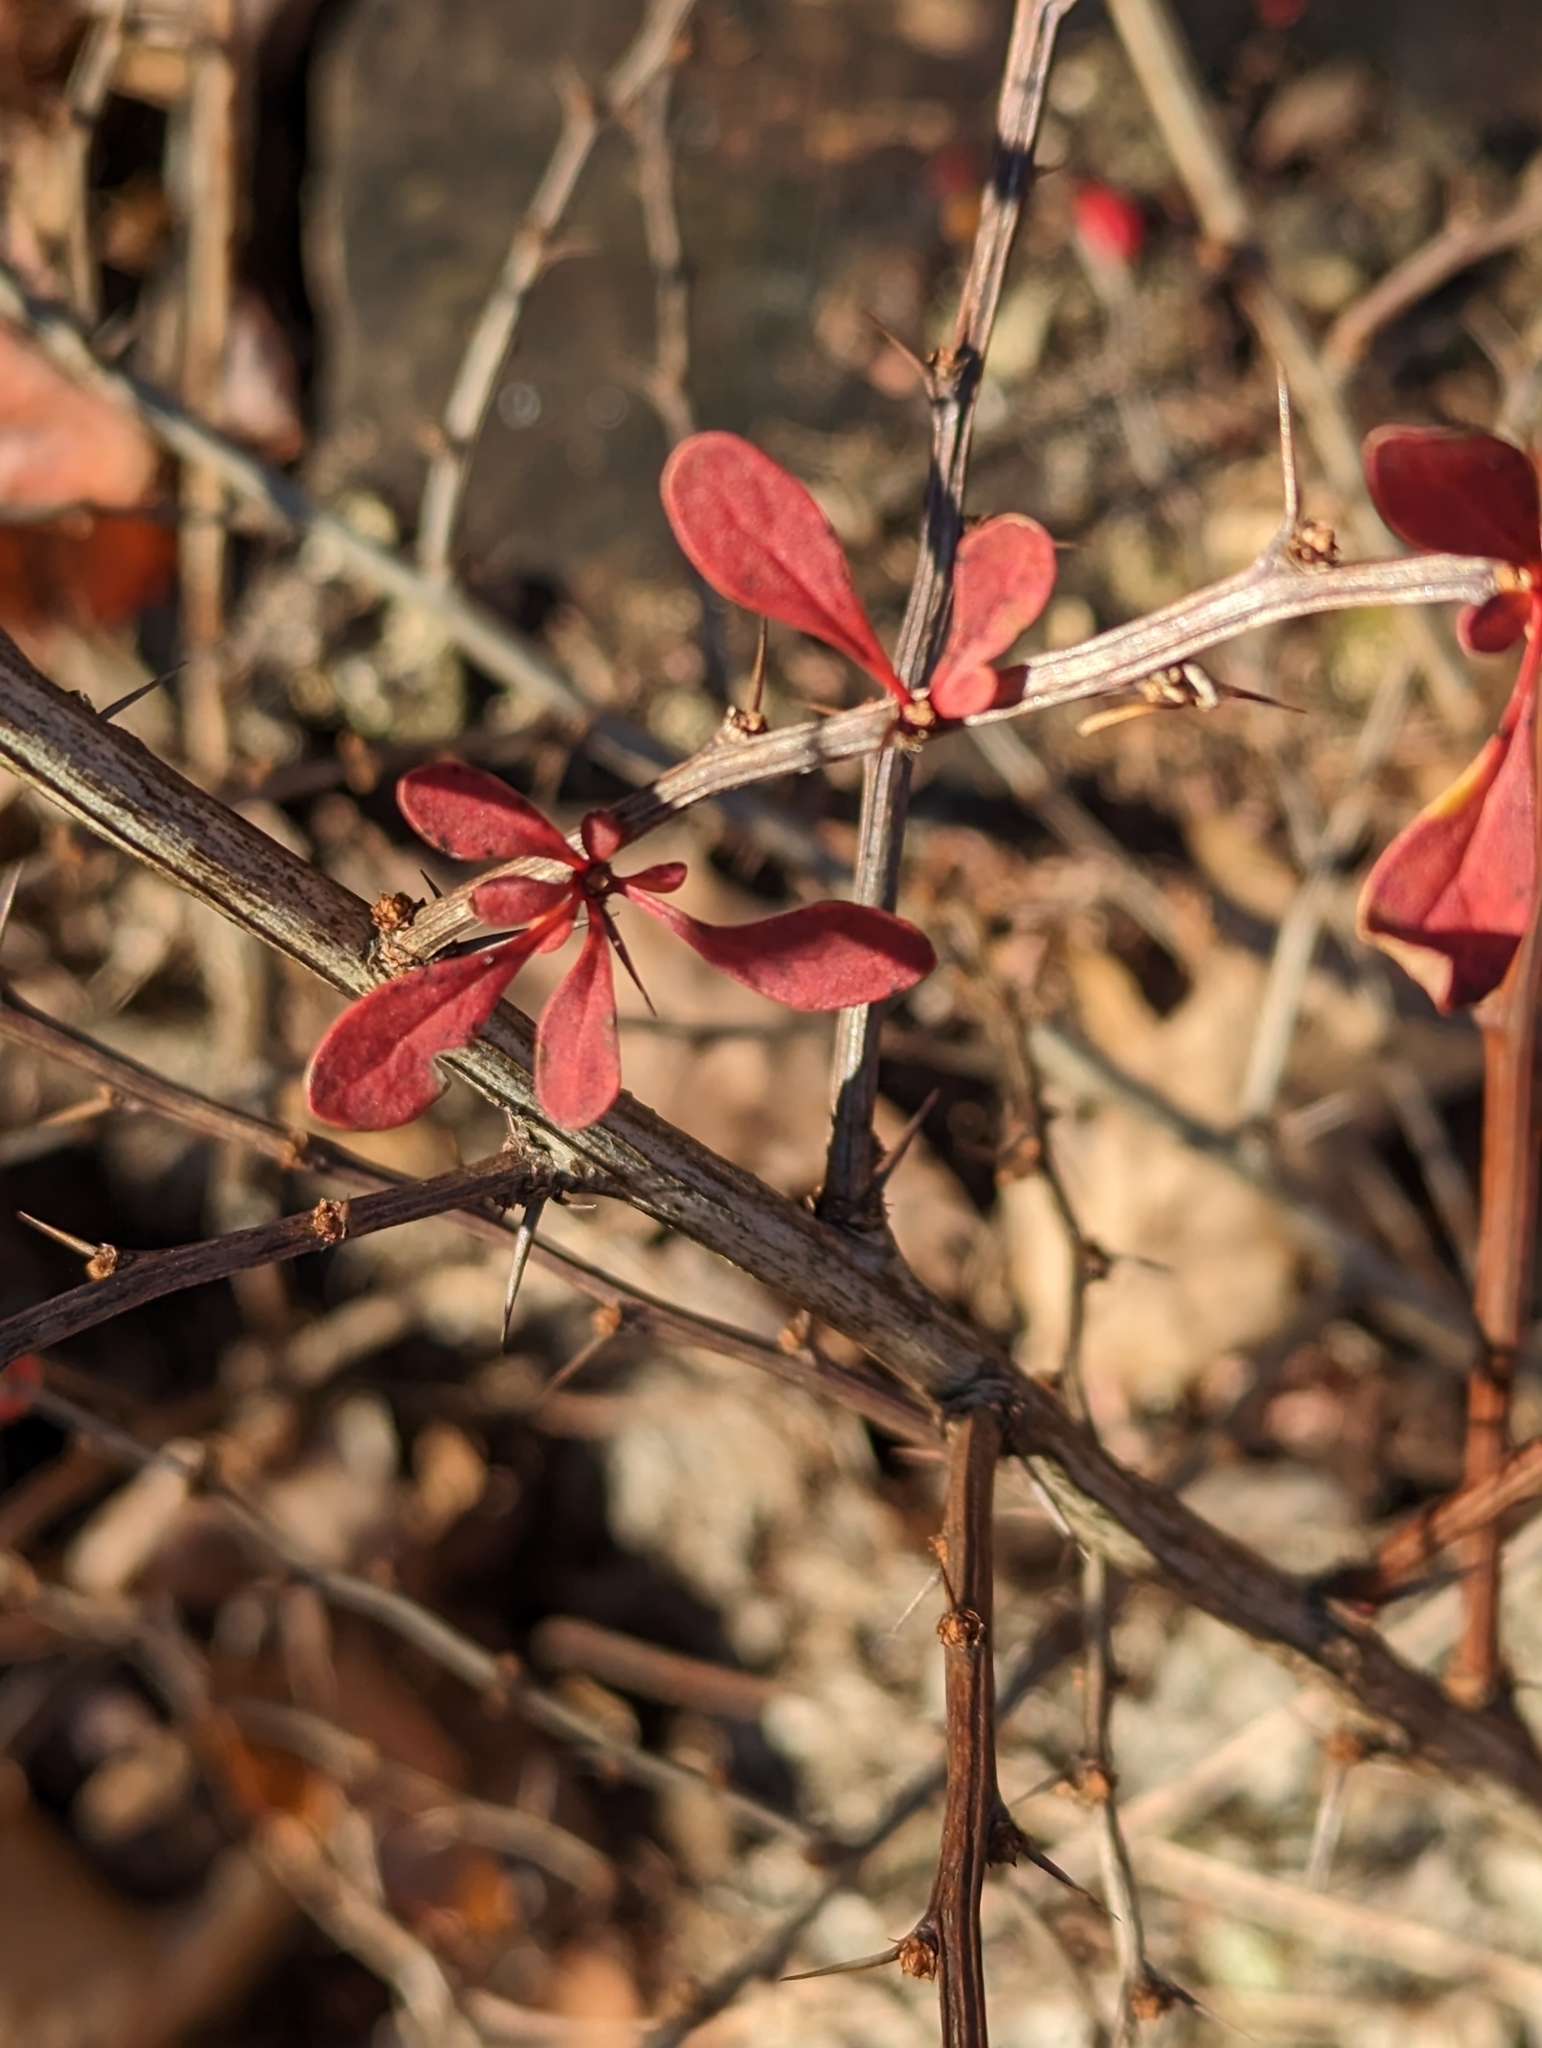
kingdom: Plantae
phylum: Tracheophyta
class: Magnoliopsida
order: Ranunculales
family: Berberidaceae
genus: Berberis
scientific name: Berberis thunbergii
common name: Japanese barberry
